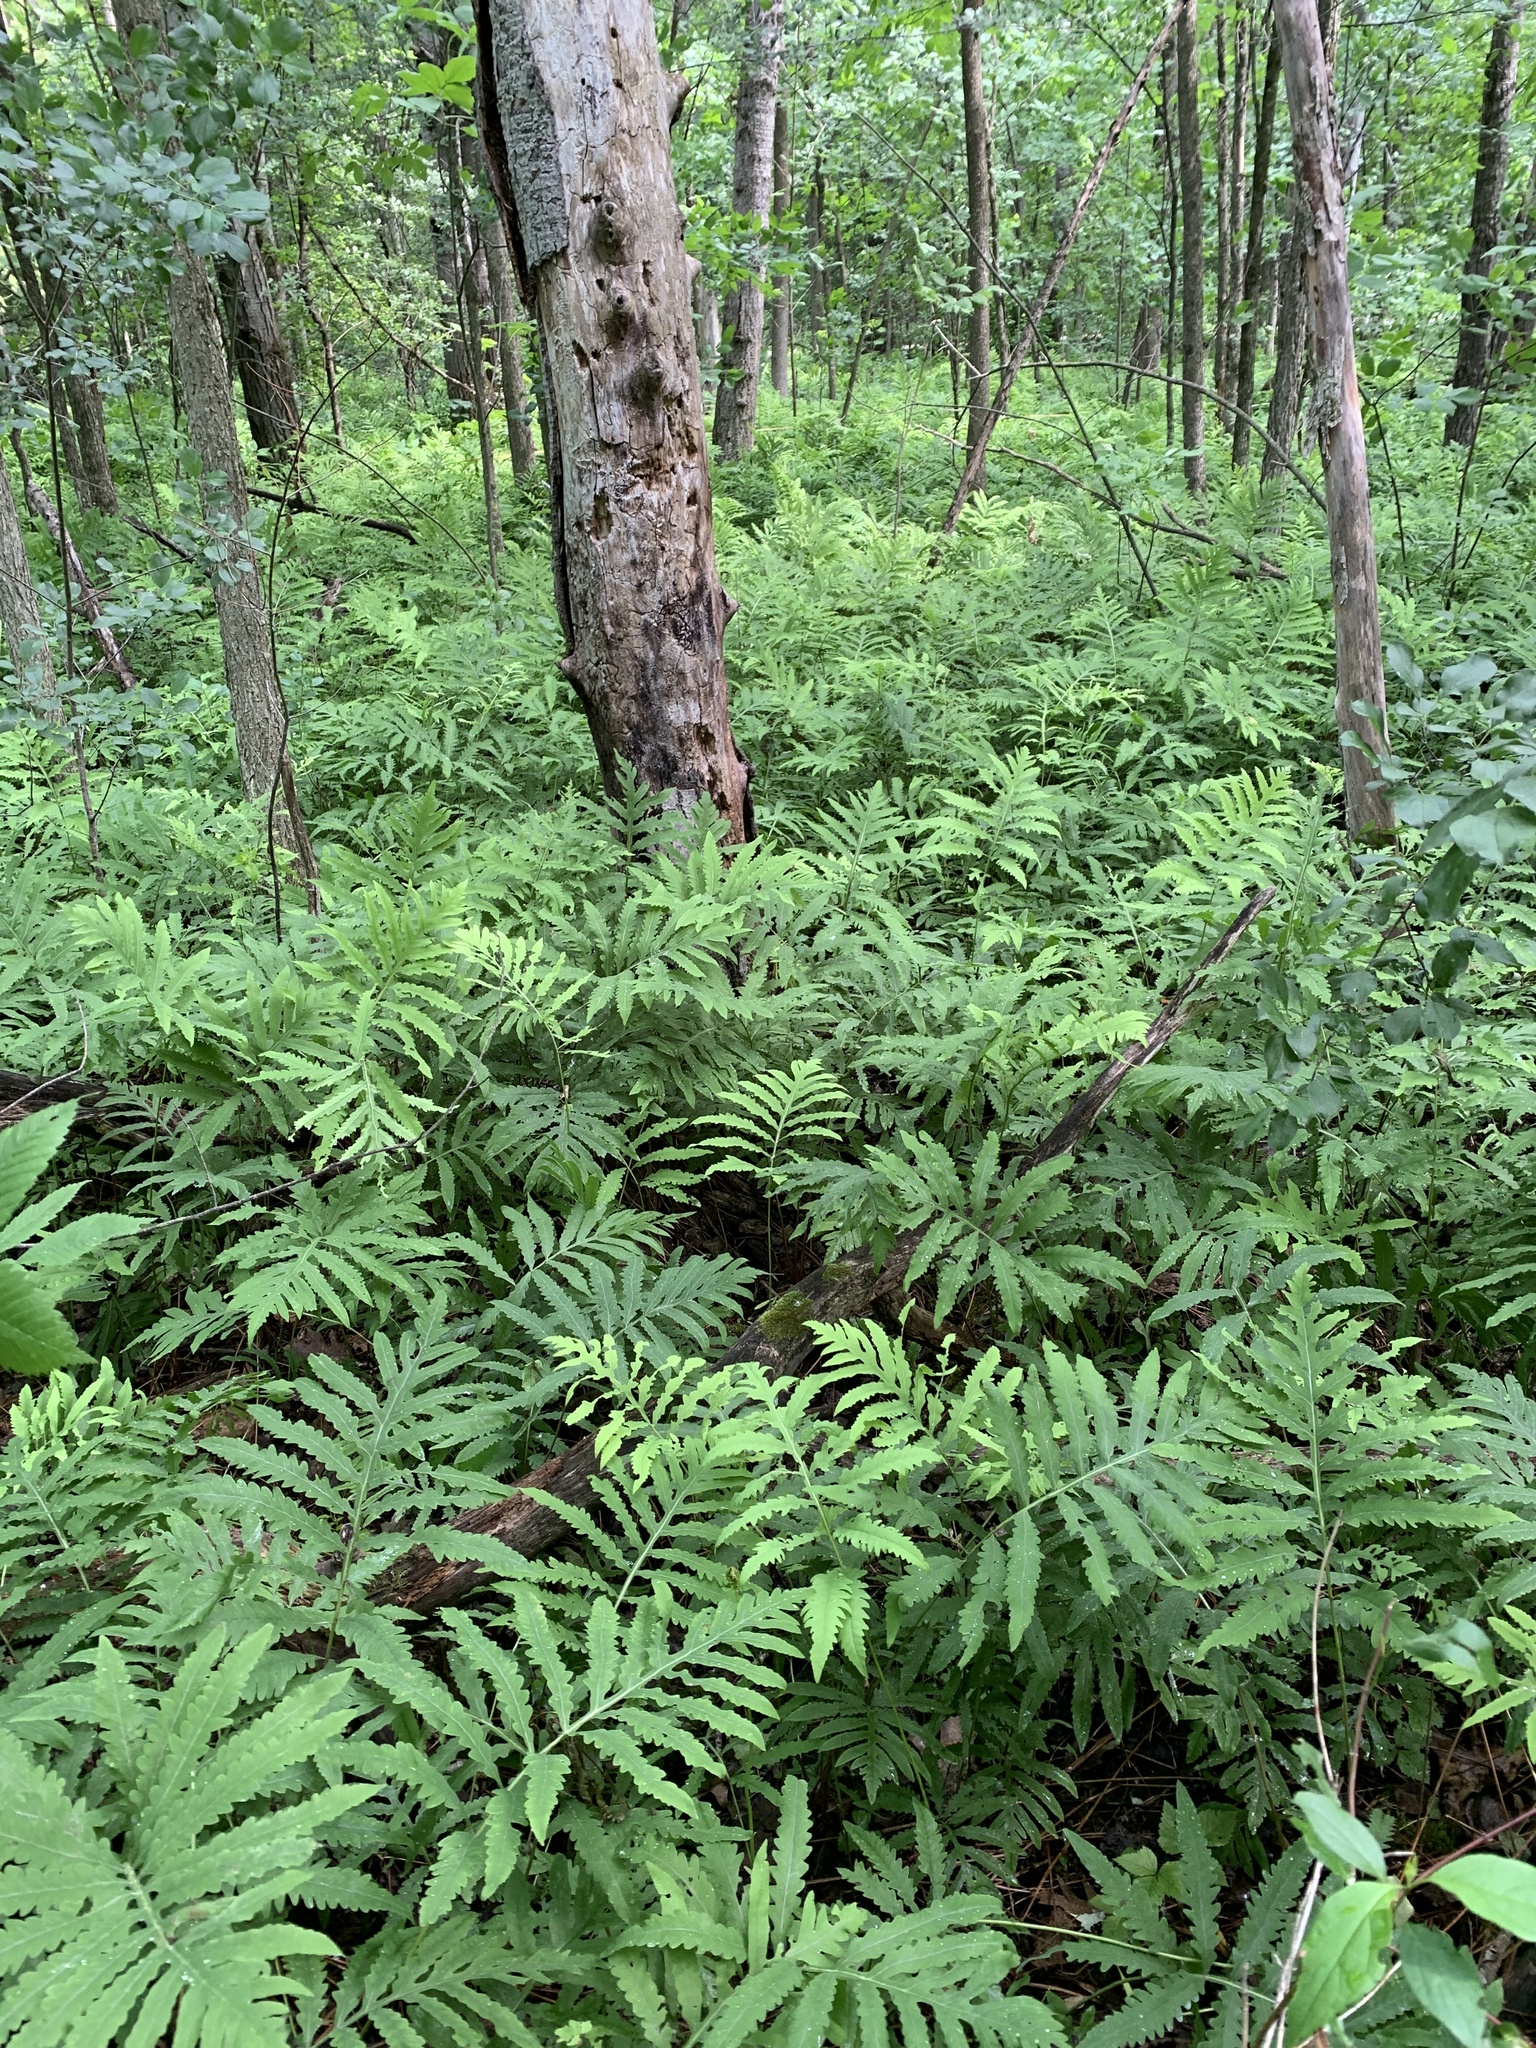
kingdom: Plantae
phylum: Tracheophyta
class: Polypodiopsida
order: Polypodiales
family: Onocleaceae
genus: Onoclea
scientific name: Onoclea sensibilis
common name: Sensitive fern
